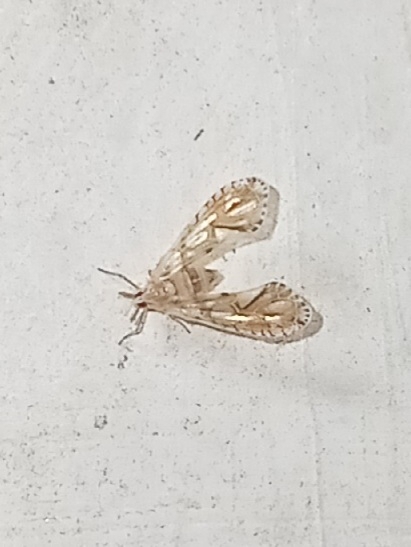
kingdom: Animalia
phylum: Arthropoda
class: Insecta
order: Hemiptera
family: Derbidae
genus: Anotia
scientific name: Anotia kirkaldyi
